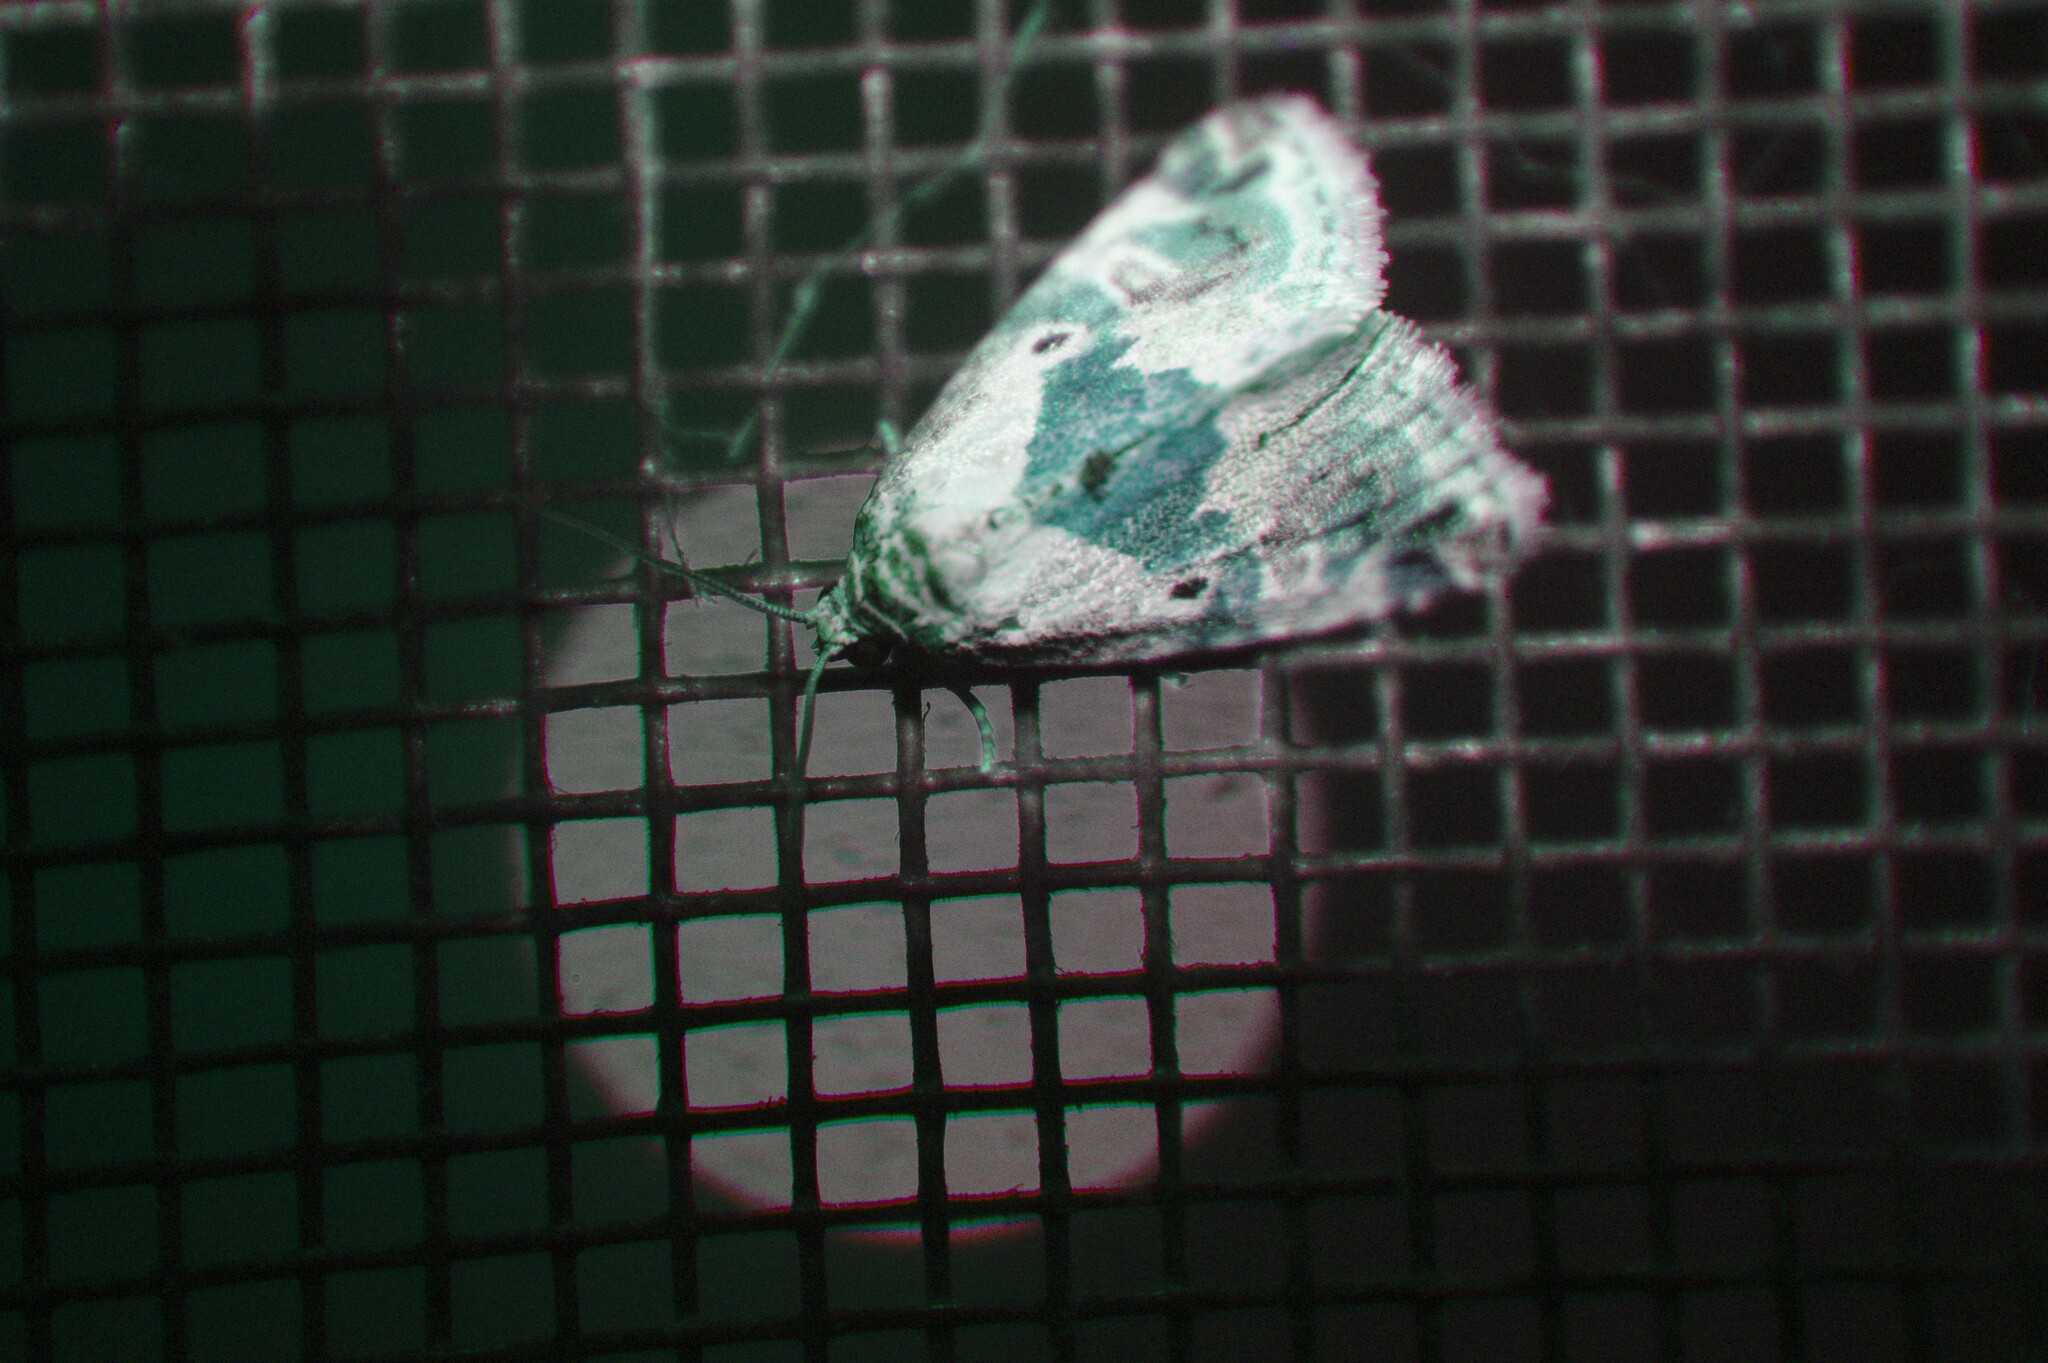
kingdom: Animalia
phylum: Arthropoda
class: Insecta
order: Lepidoptera
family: Noctuidae
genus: Maliattha
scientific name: Maliattha synochitis
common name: Black-dotted glyph
